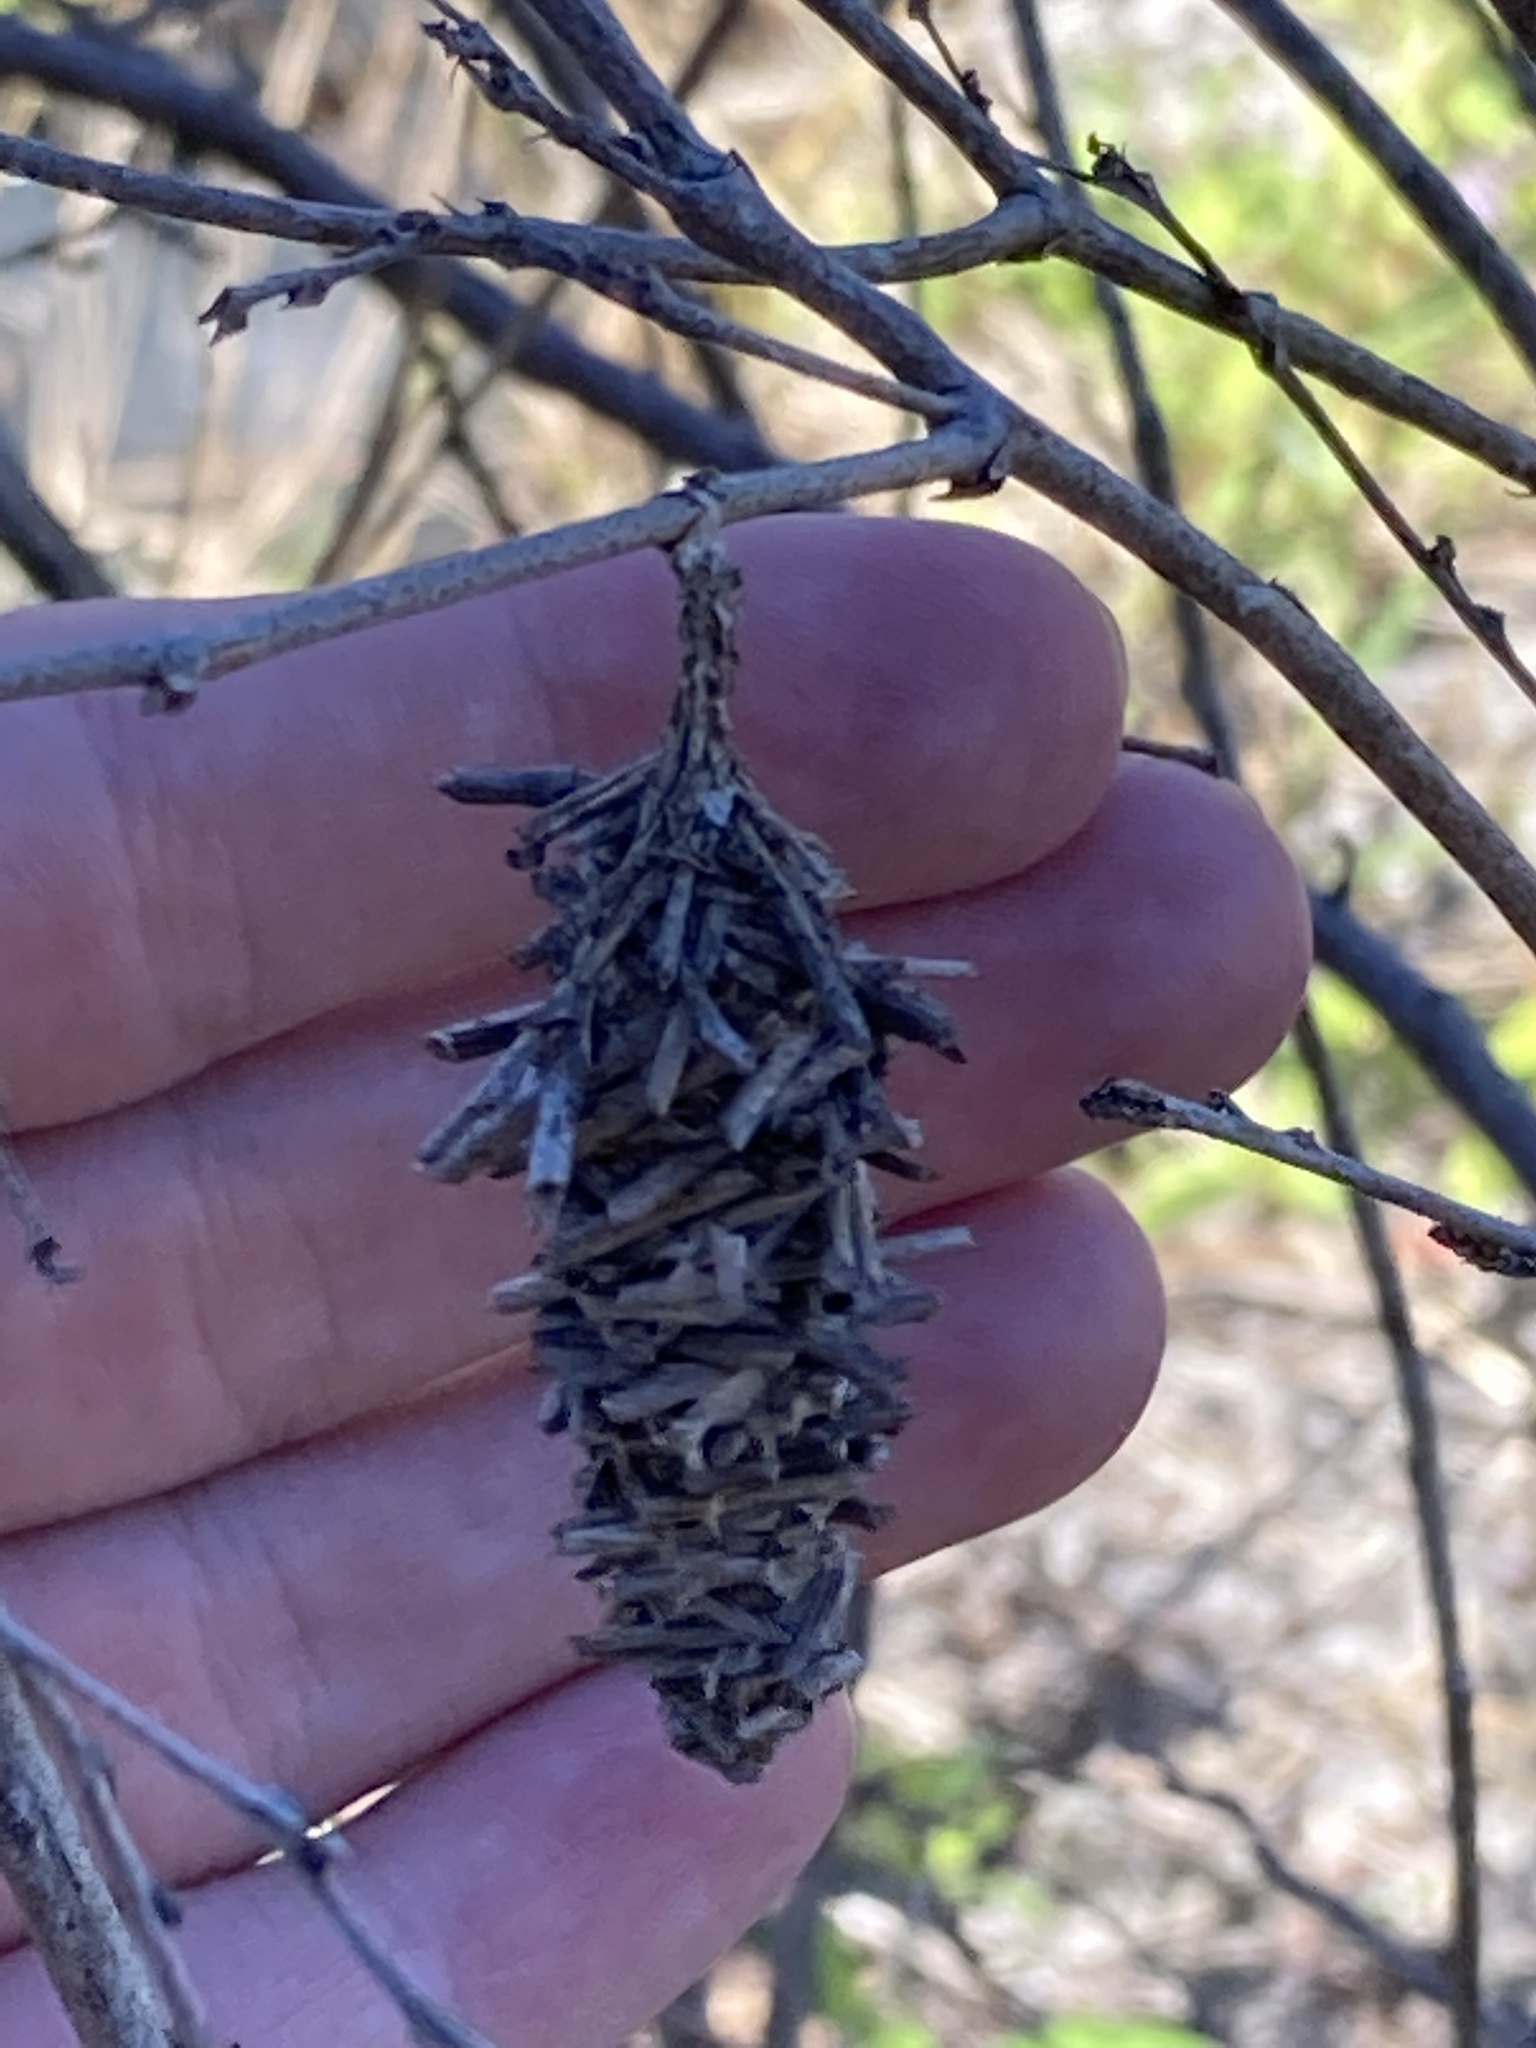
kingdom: Animalia
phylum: Arthropoda
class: Insecta
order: Lepidoptera
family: Psychidae
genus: Oiketicus
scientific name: Oiketicus
